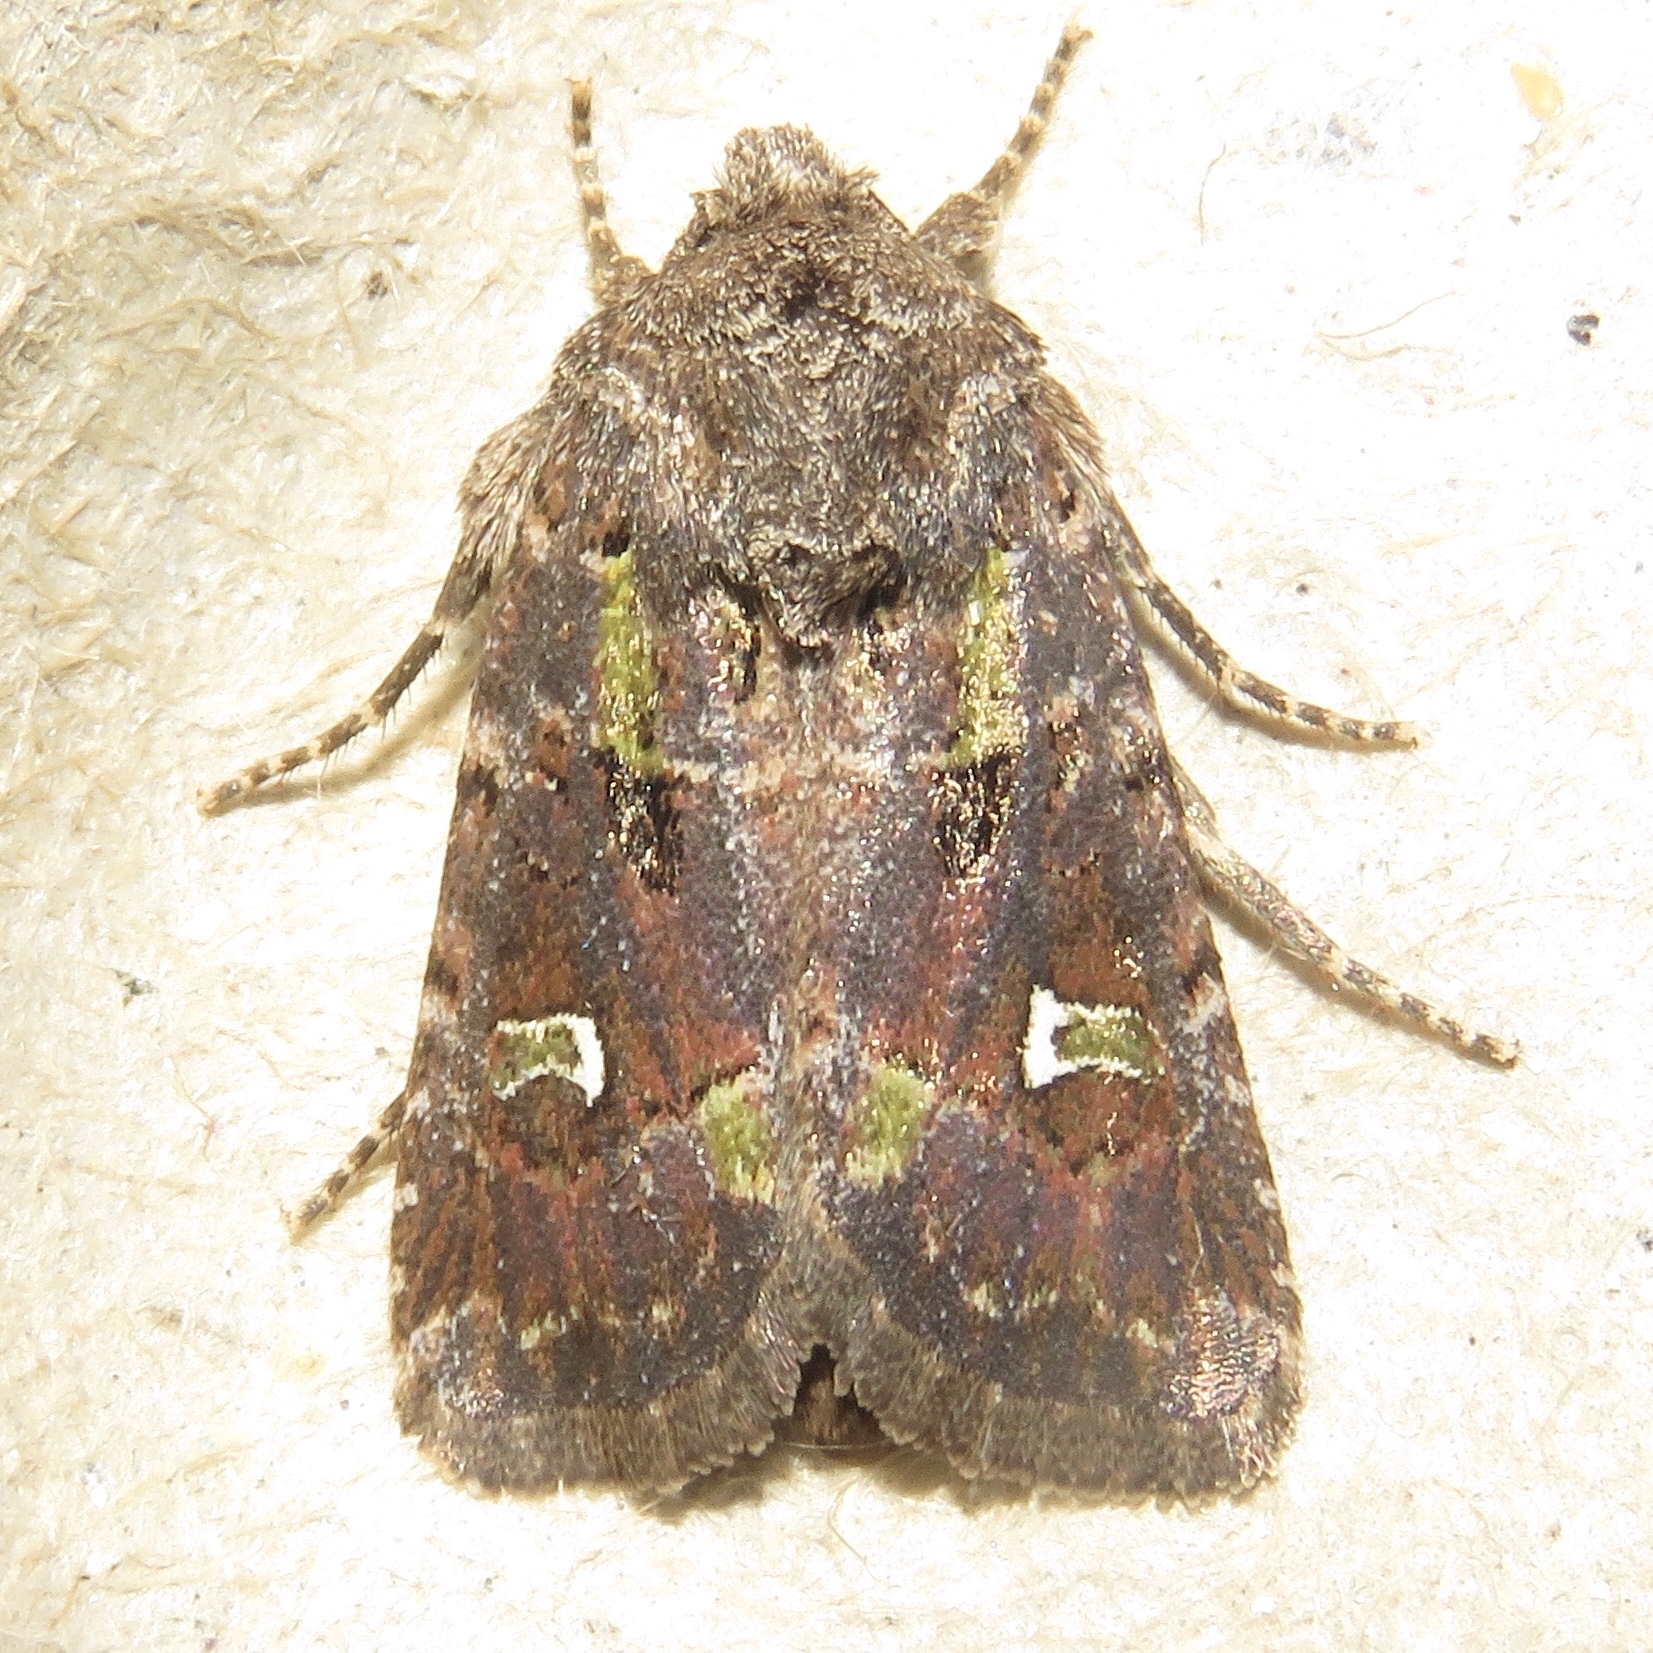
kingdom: Animalia
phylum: Arthropoda
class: Insecta
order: Lepidoptera
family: Noctuidae
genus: Lacinipolia
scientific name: Lacinipolia renigera
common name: Kidney-spotted minor
